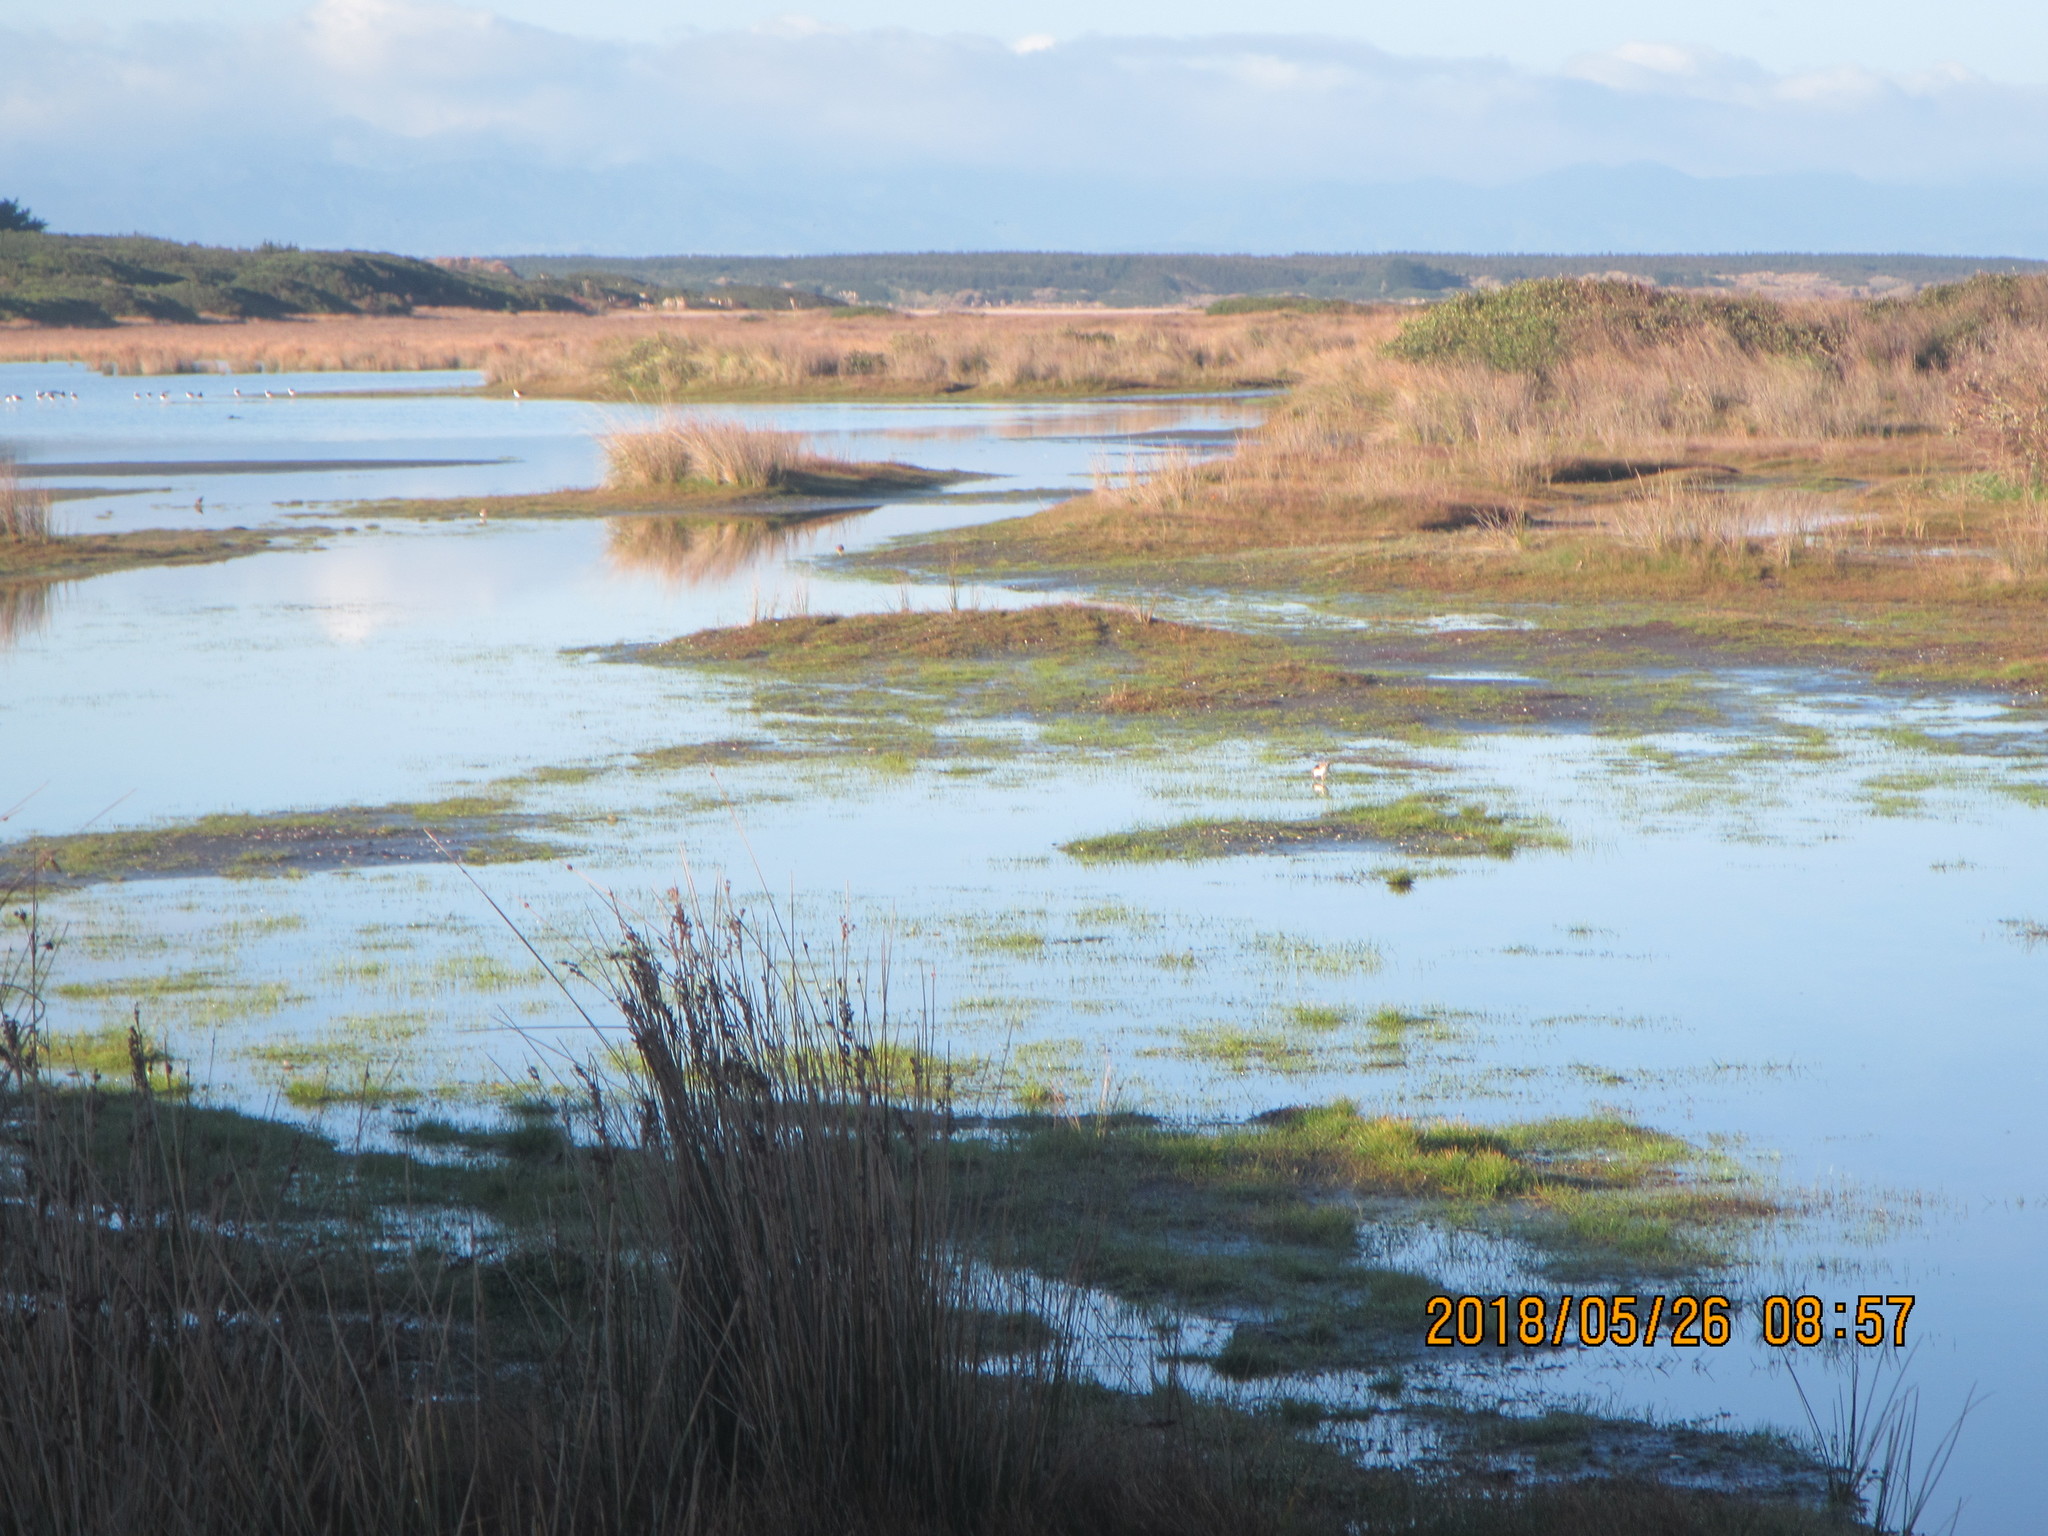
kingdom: Animalia
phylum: Chordata
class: Aves
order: Charadriiformes
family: Charadriidae
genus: Elseyornis
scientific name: Elseyornis melanops
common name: Black-fronted dotterel
